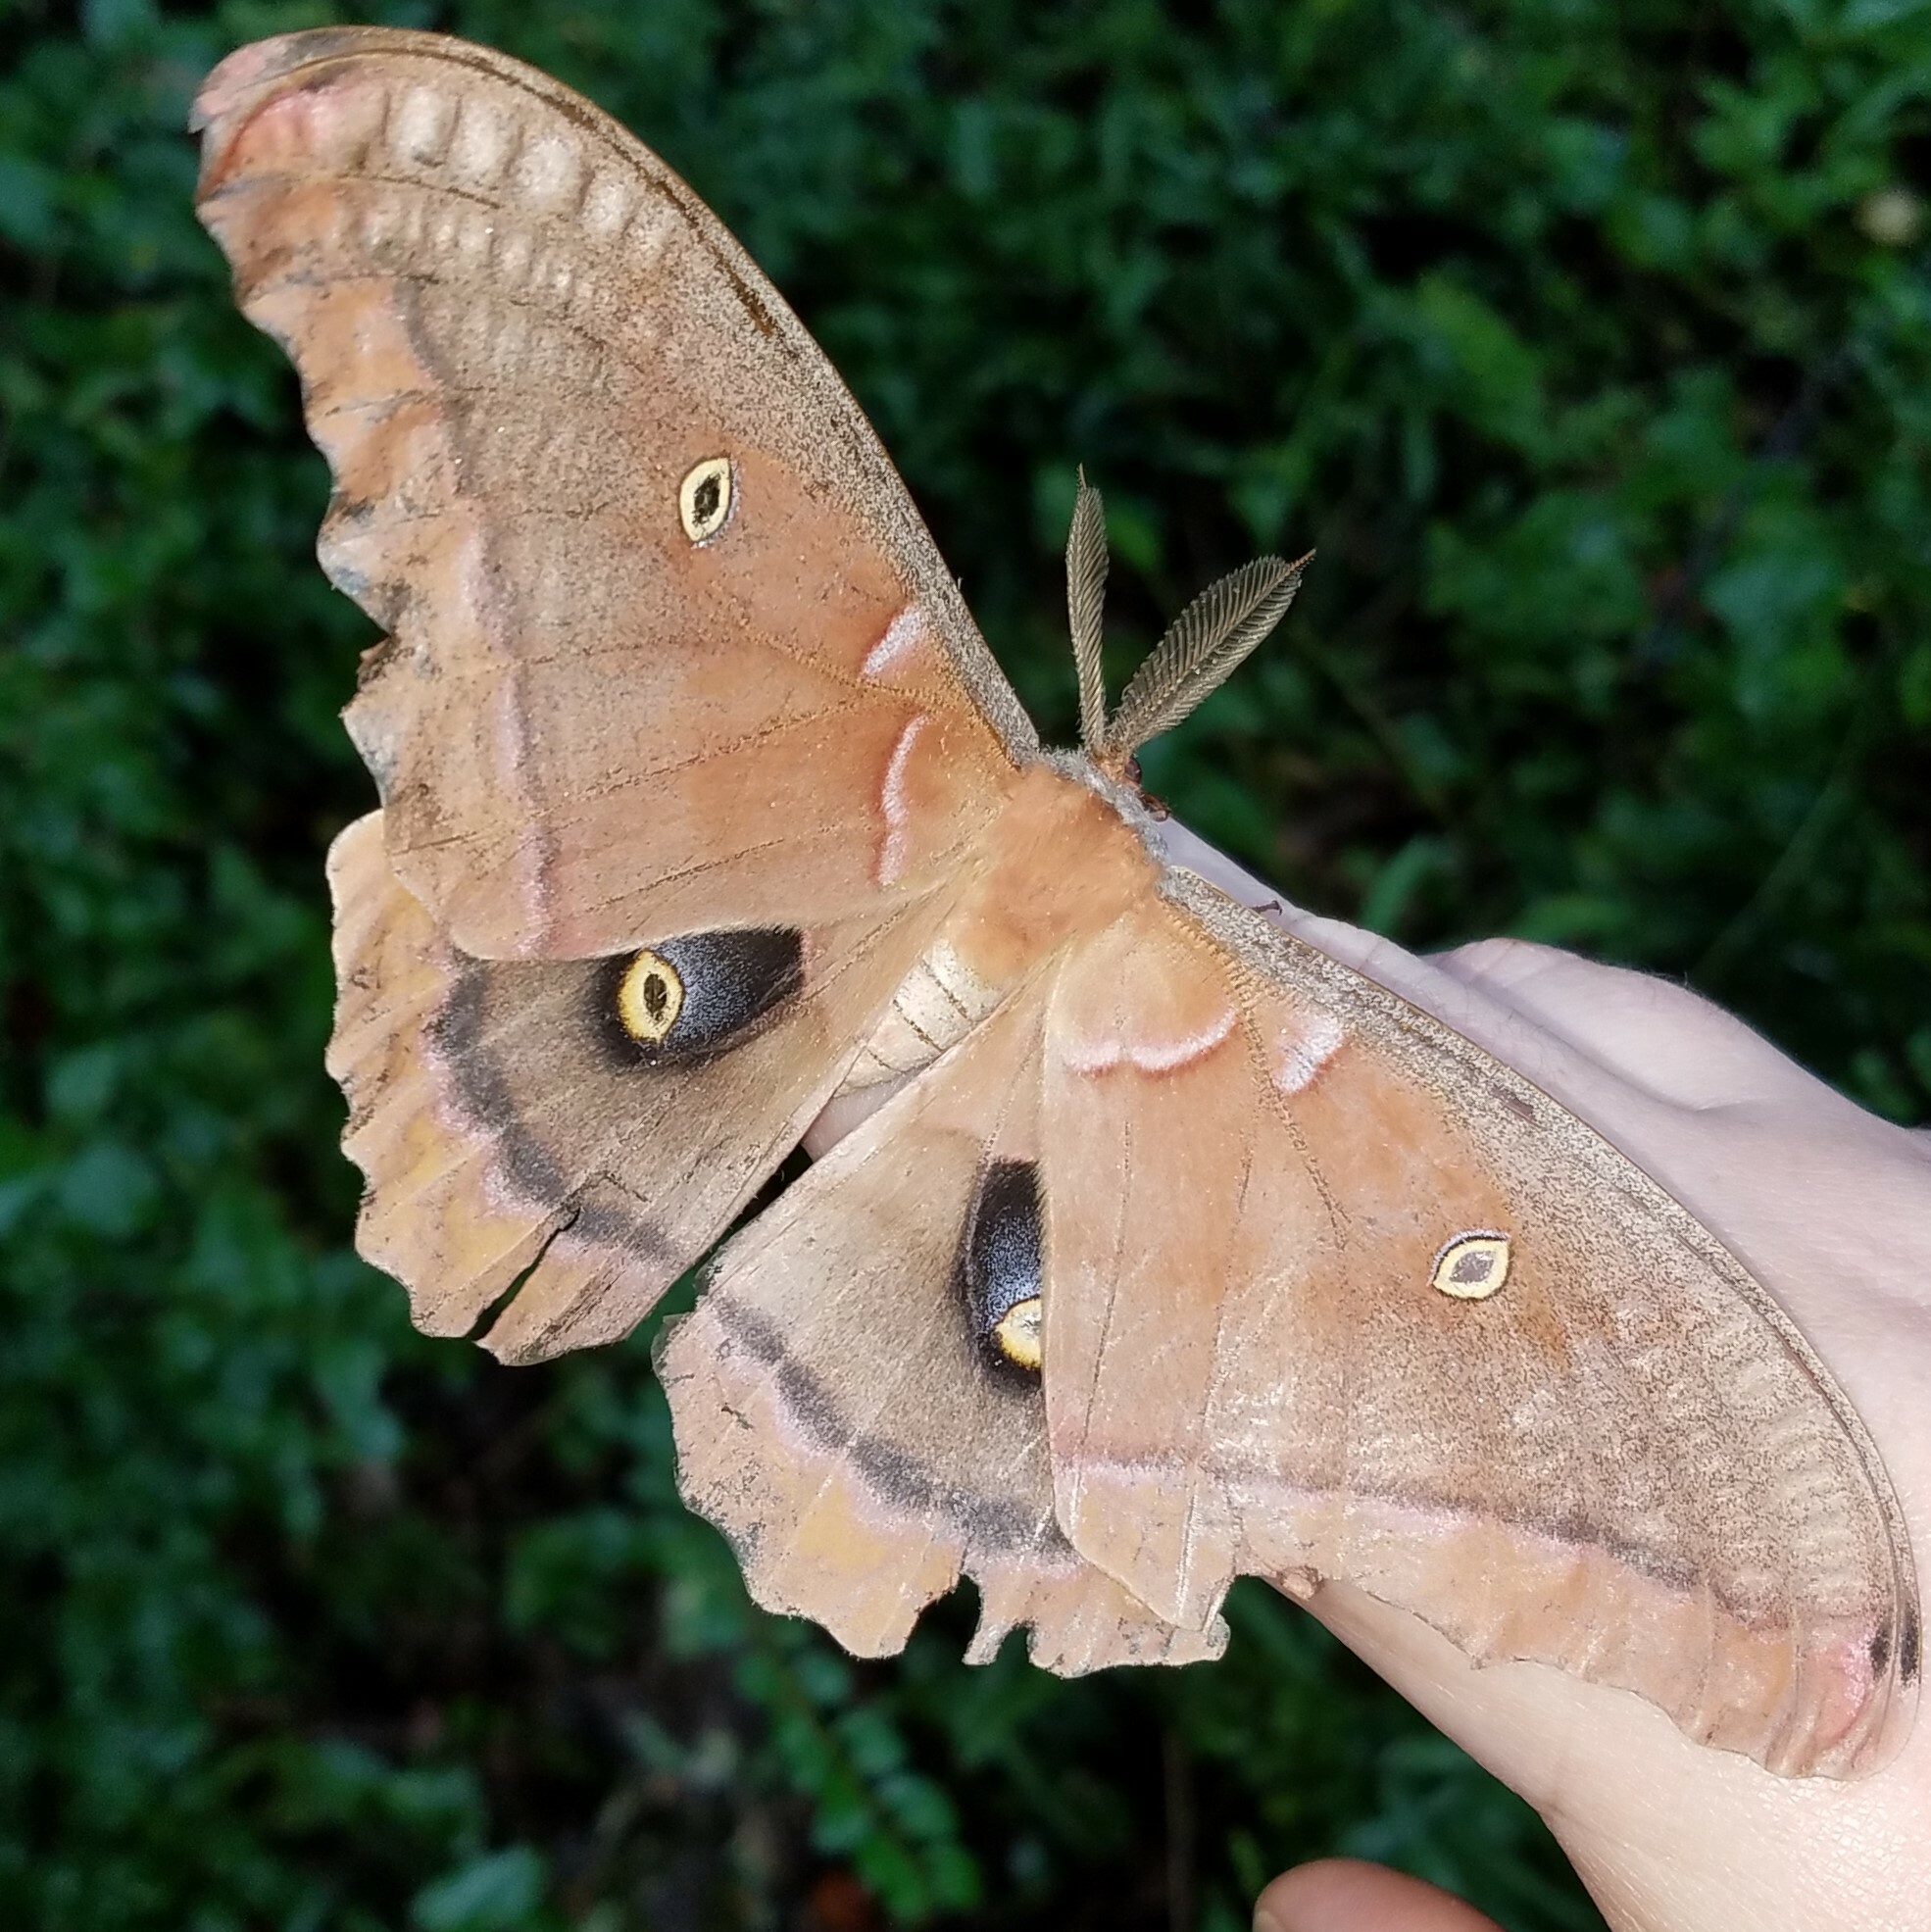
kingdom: Animalia
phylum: Arthropoda
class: Insecta
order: Lepidoptera
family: Saturniidae
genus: Antheraea
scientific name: Antheraea polyphemus
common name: Polyphemus moth
